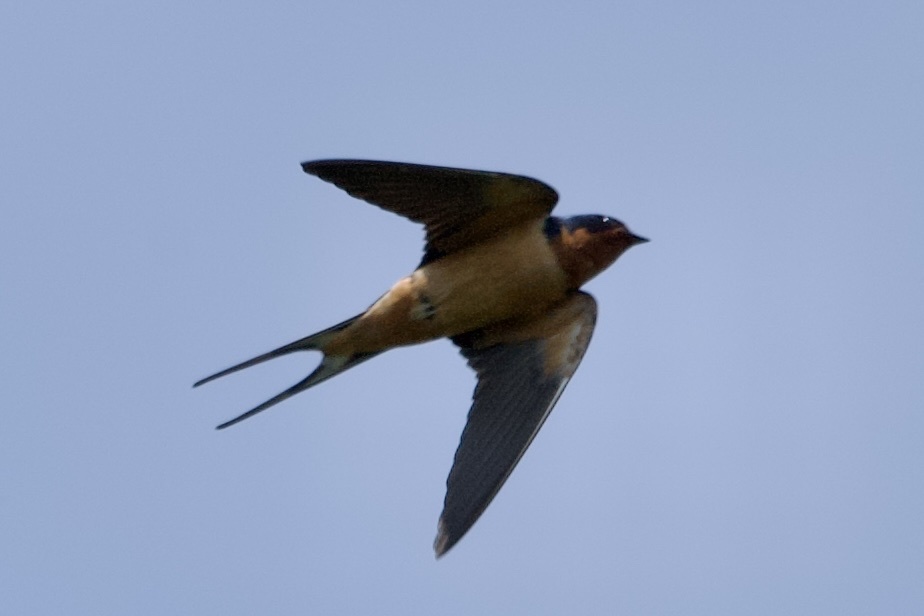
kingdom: Animalia
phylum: Chordata
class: Aves
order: Passeriformes
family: Hirundinidae
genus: Hirundo
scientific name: Hirundo rustica
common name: Barn swallow
